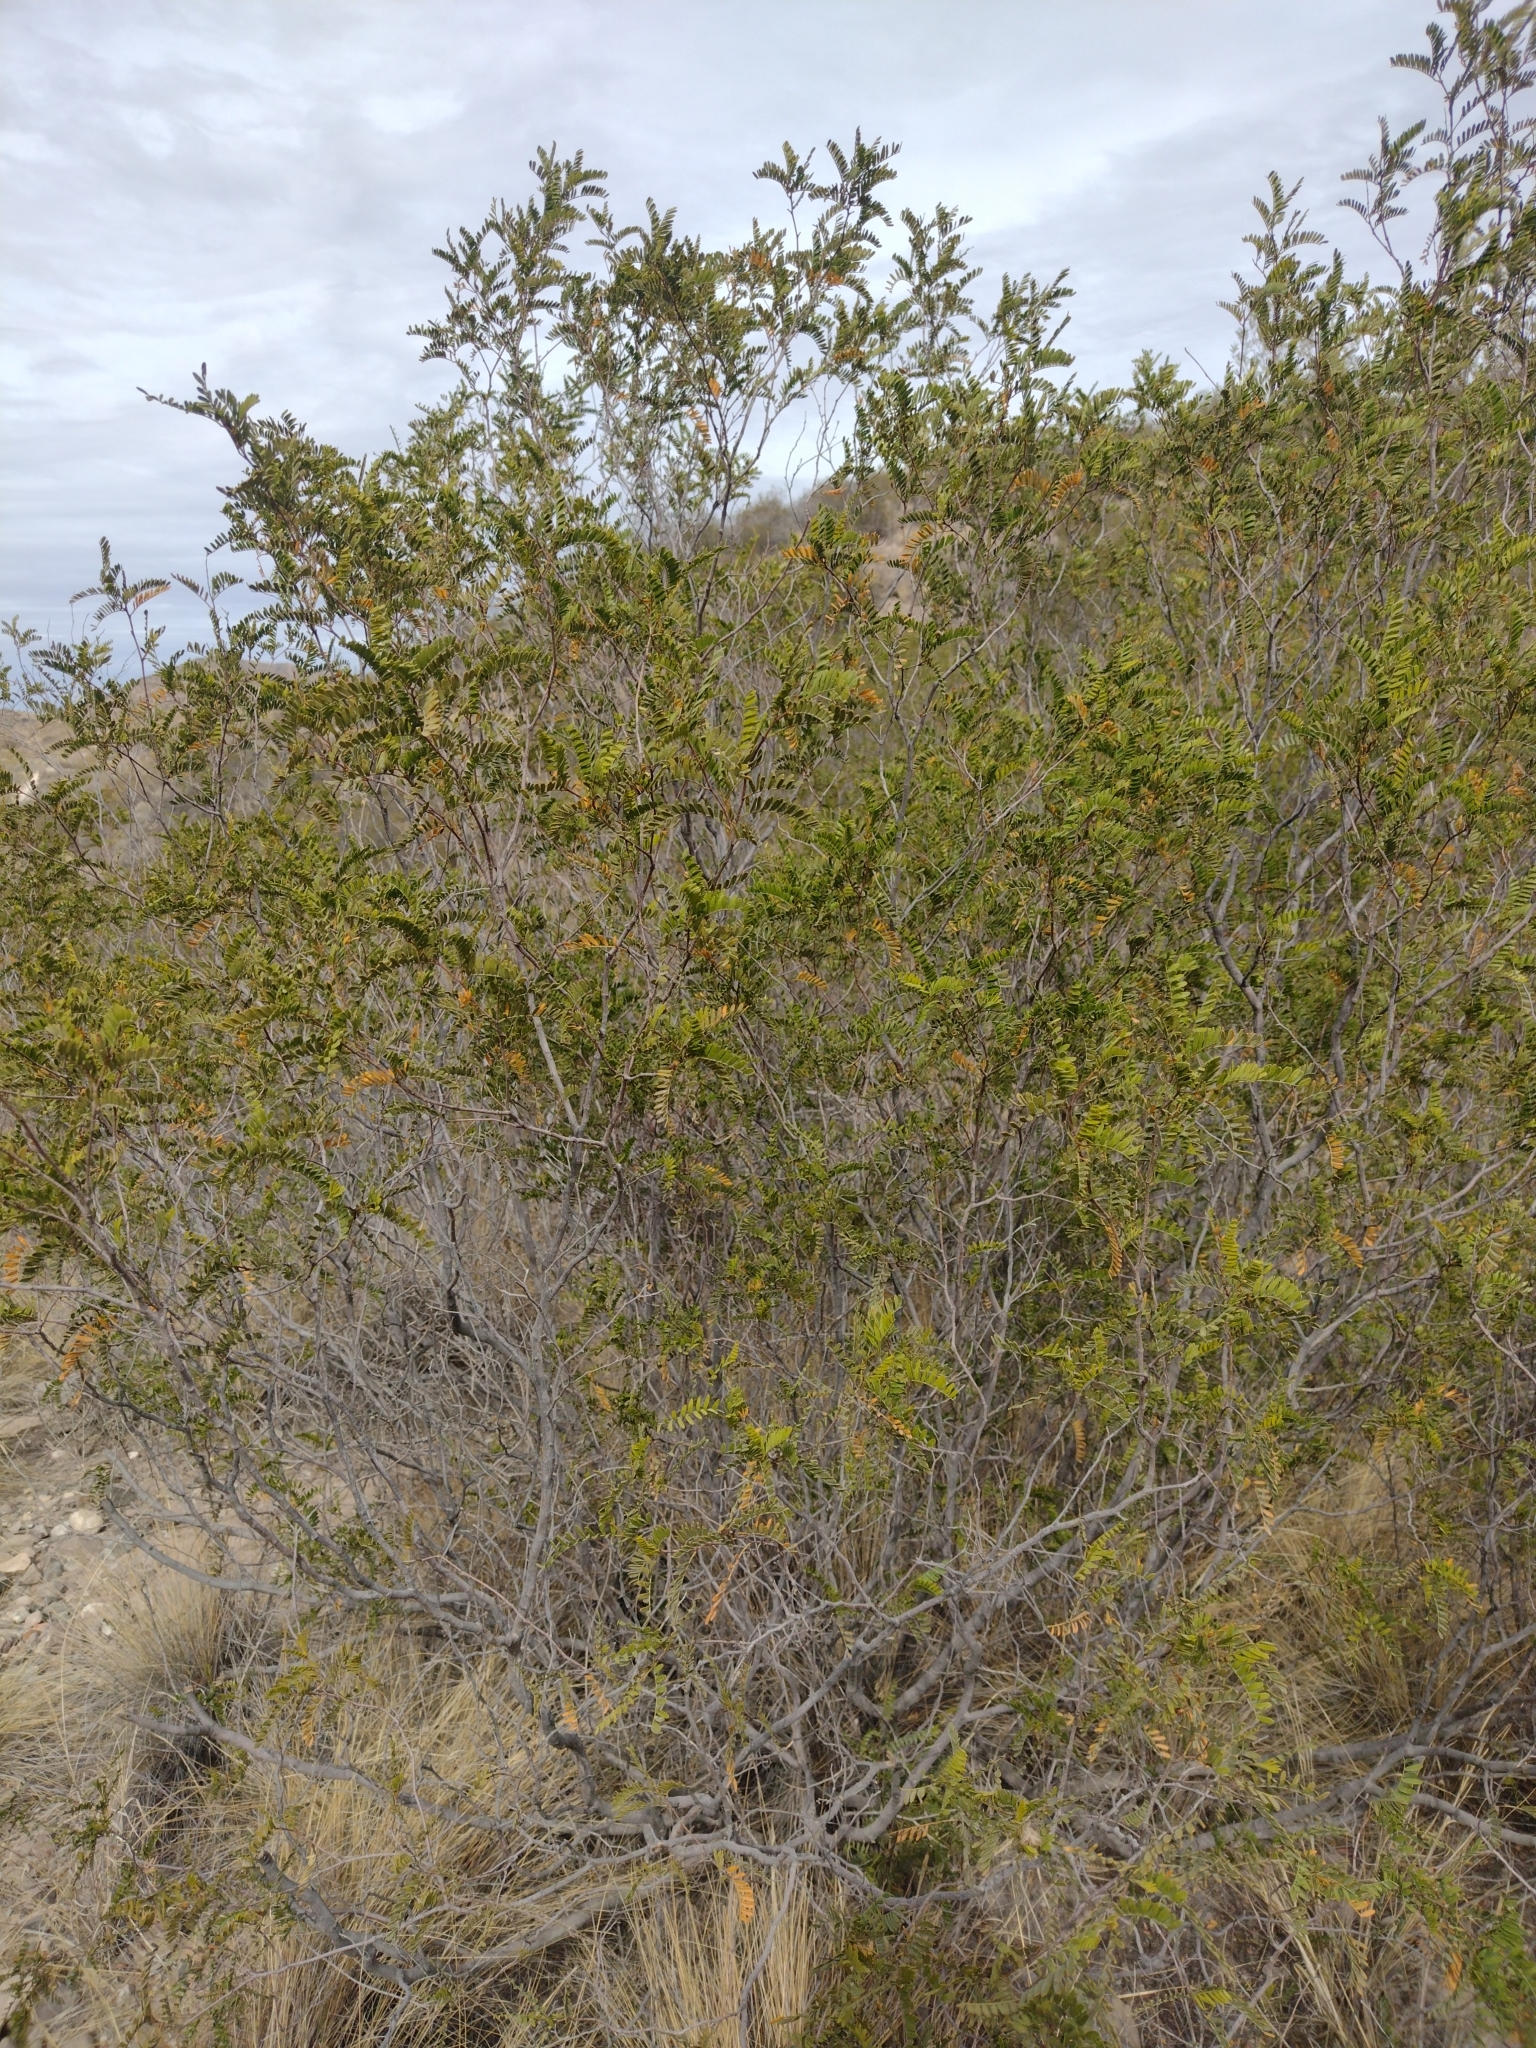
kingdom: Plantae
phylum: Tracheophyta
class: Magnoliopsida
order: Fabales
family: Fabaceae
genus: Zuccagnia
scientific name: Zuccagnia punctata
